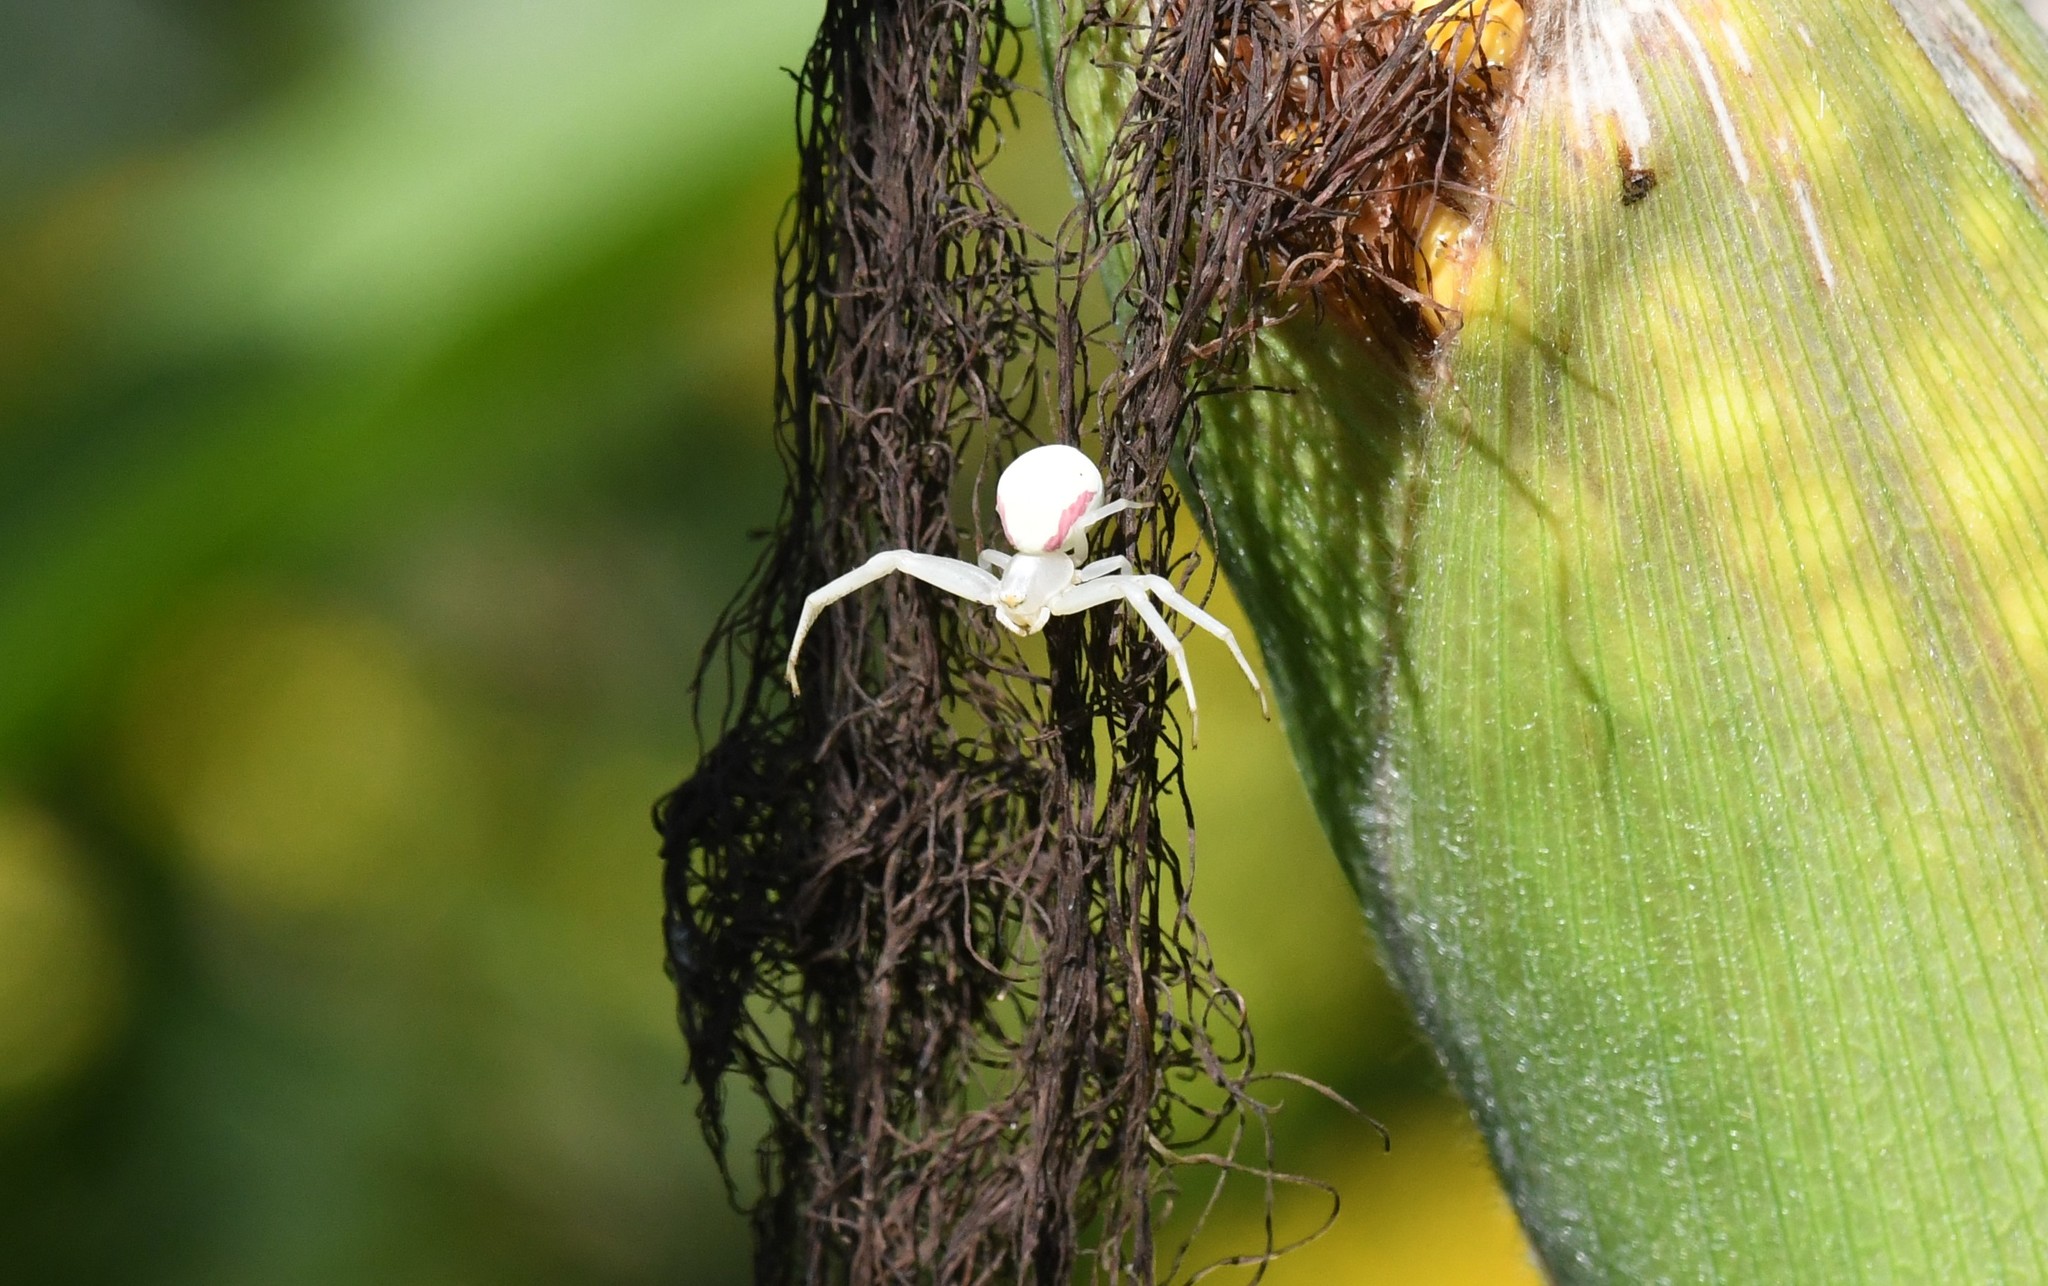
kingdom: Animalia
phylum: Arthropoda
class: Arachnida
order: Araneae
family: Thomisidae
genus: Misumena
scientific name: Misumena vatia
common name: Goldenrod crab spider
